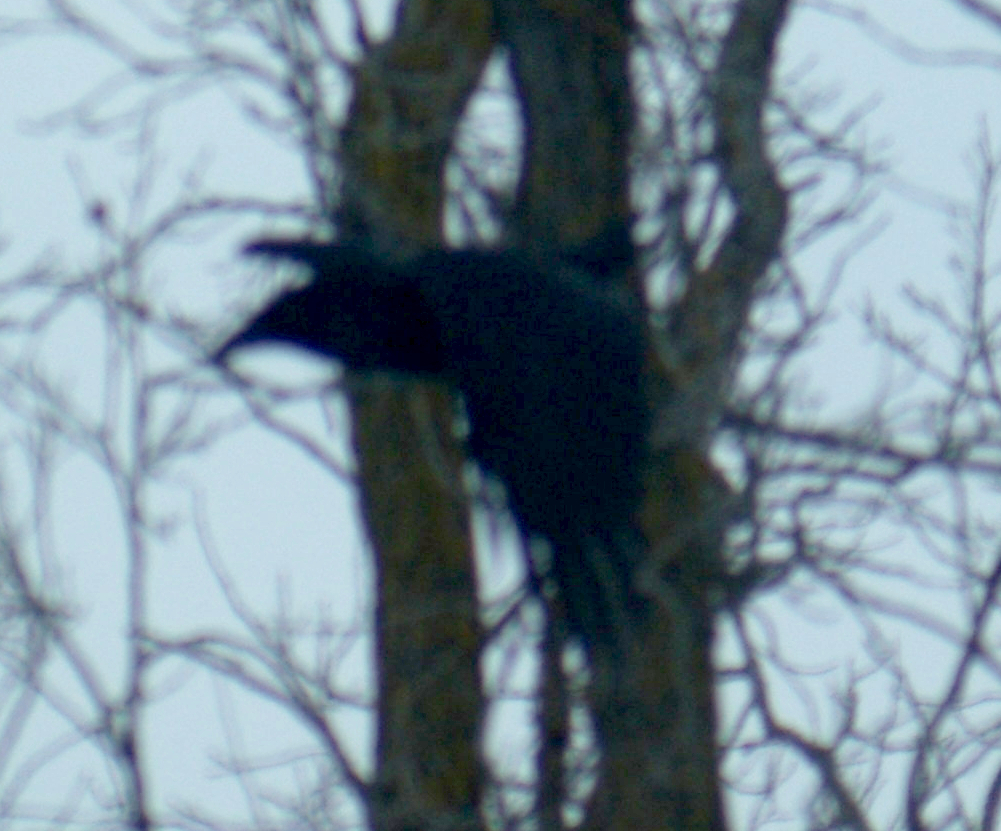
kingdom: Animalia
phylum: Chordata
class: Aves
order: Passeriformes
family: Corvidae
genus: Corvus
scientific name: Corvus corax
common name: Common raven
